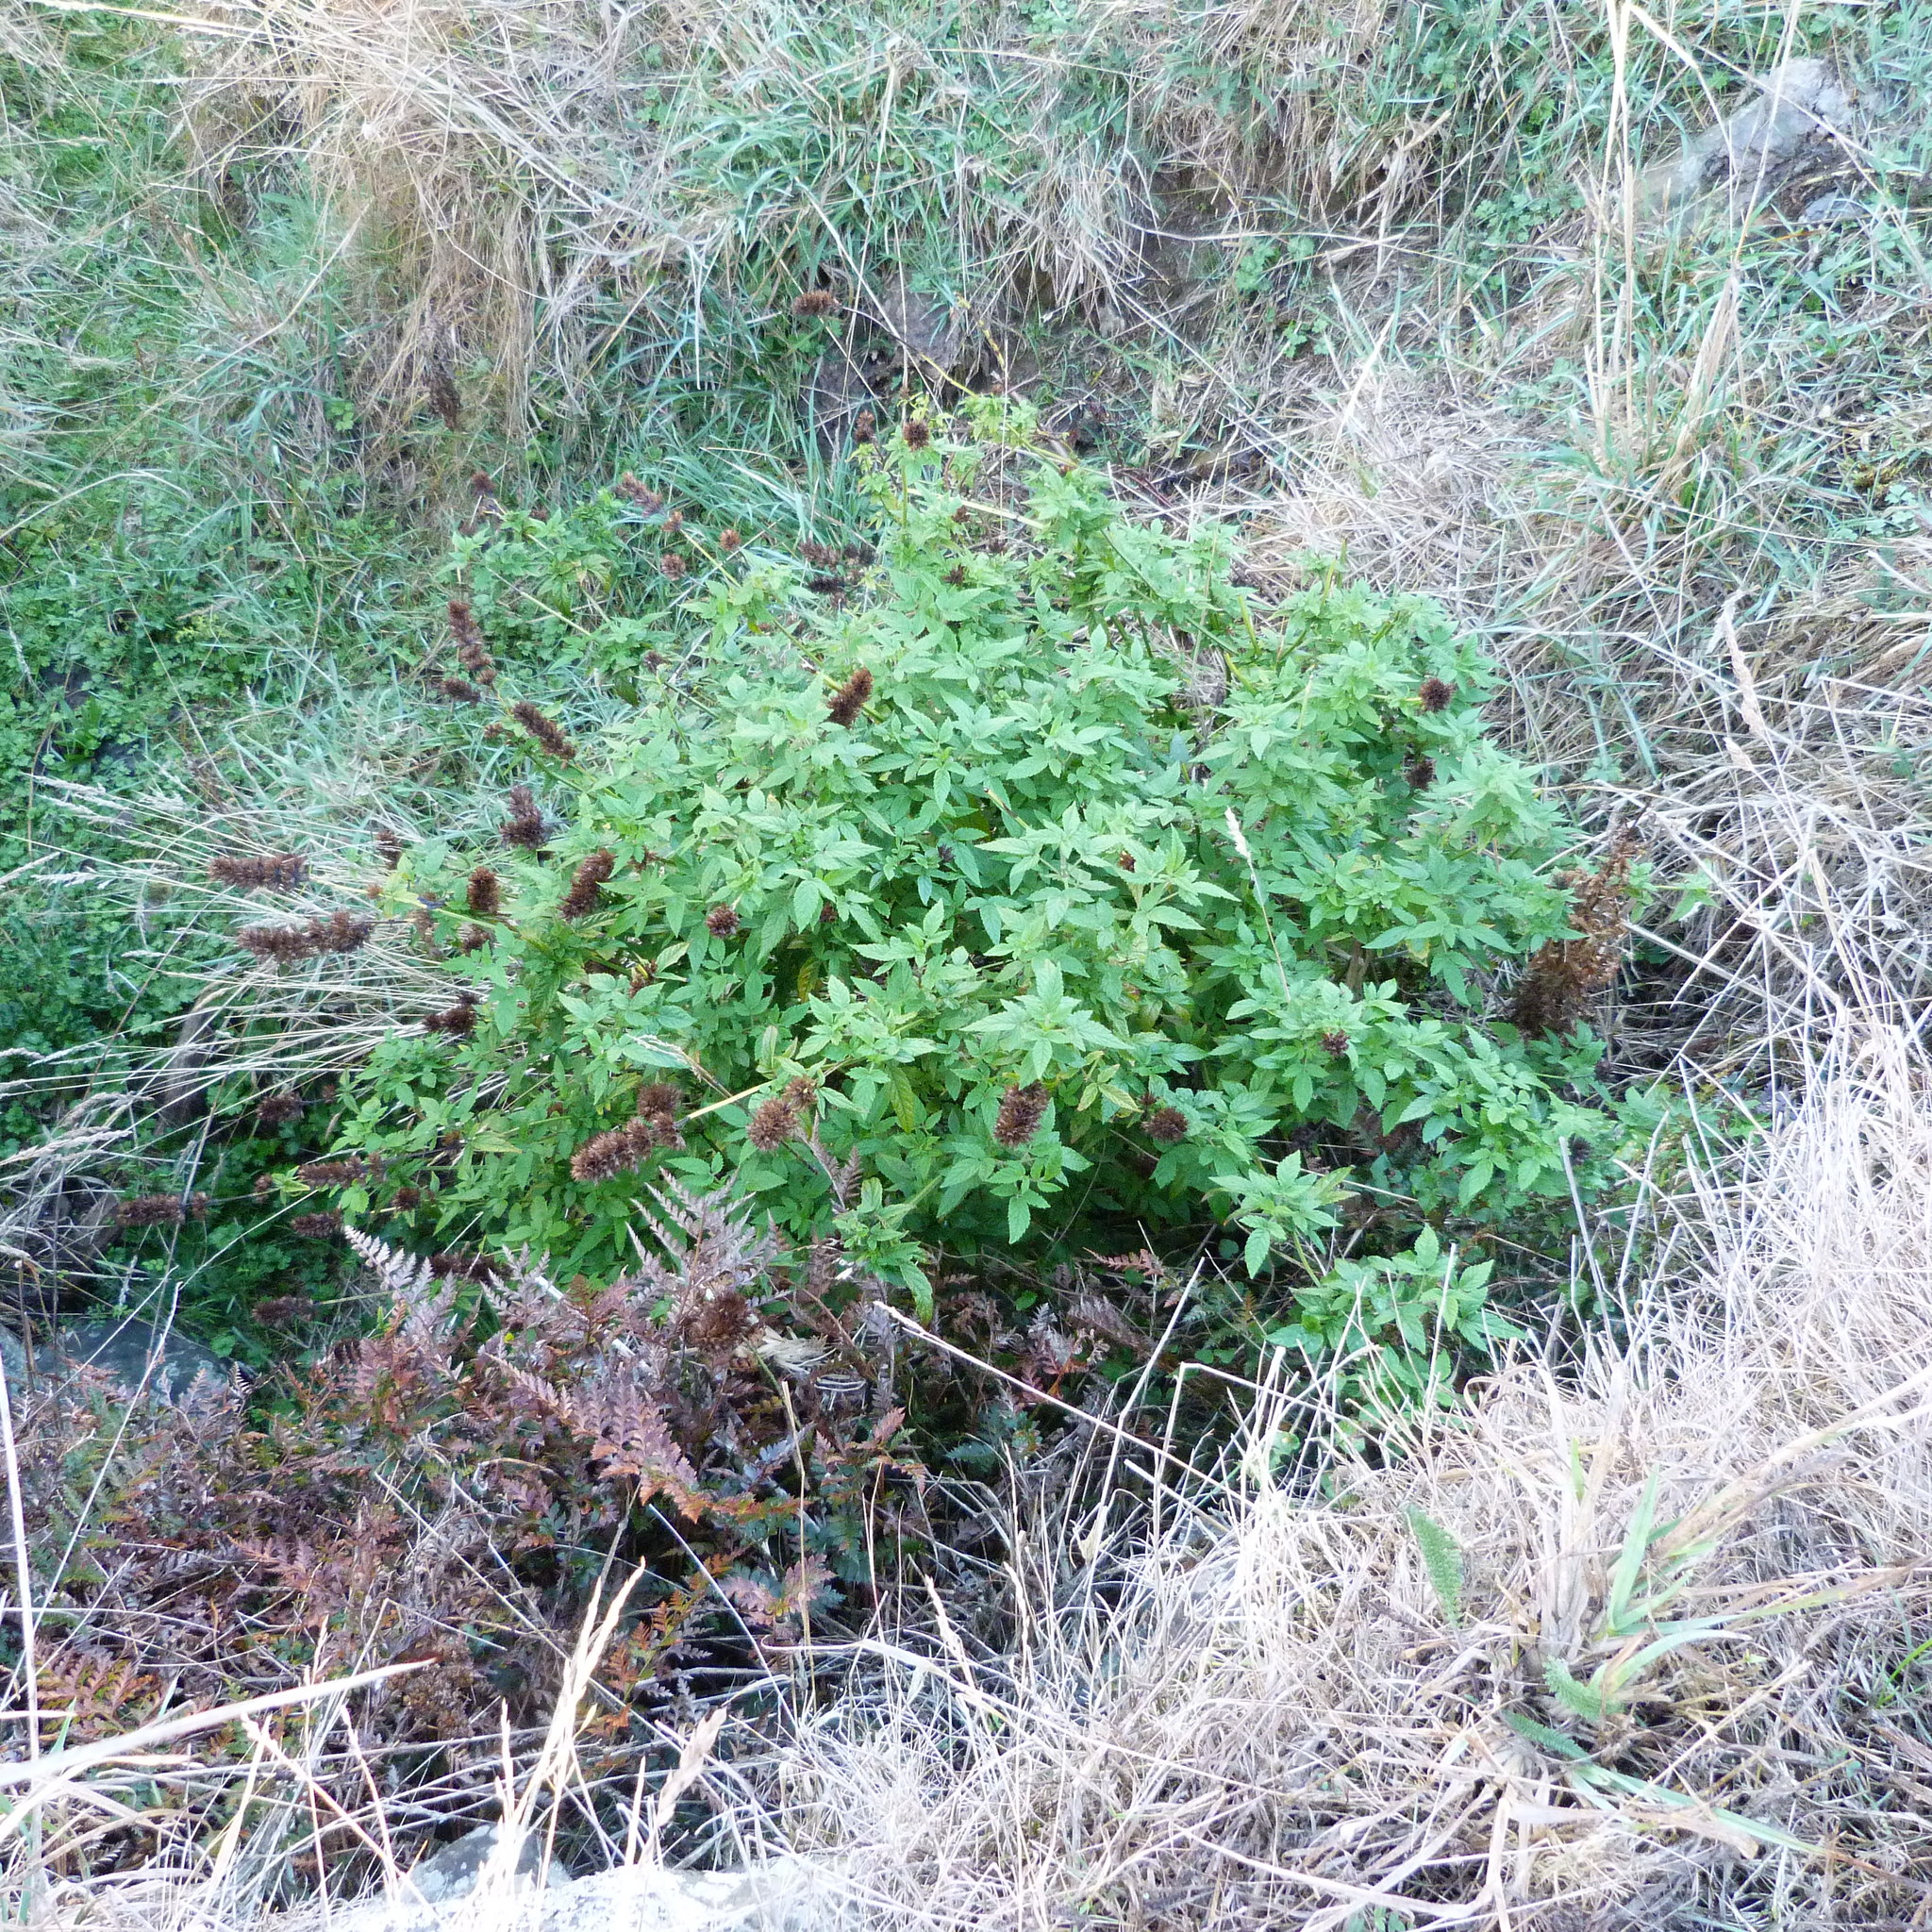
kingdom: Plantae
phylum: Tracheophyta
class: Magnoliopsida
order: Lamiales
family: Lamiaceae
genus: Cedronella
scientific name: Cedronella canariensis
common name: Canary islands balm
